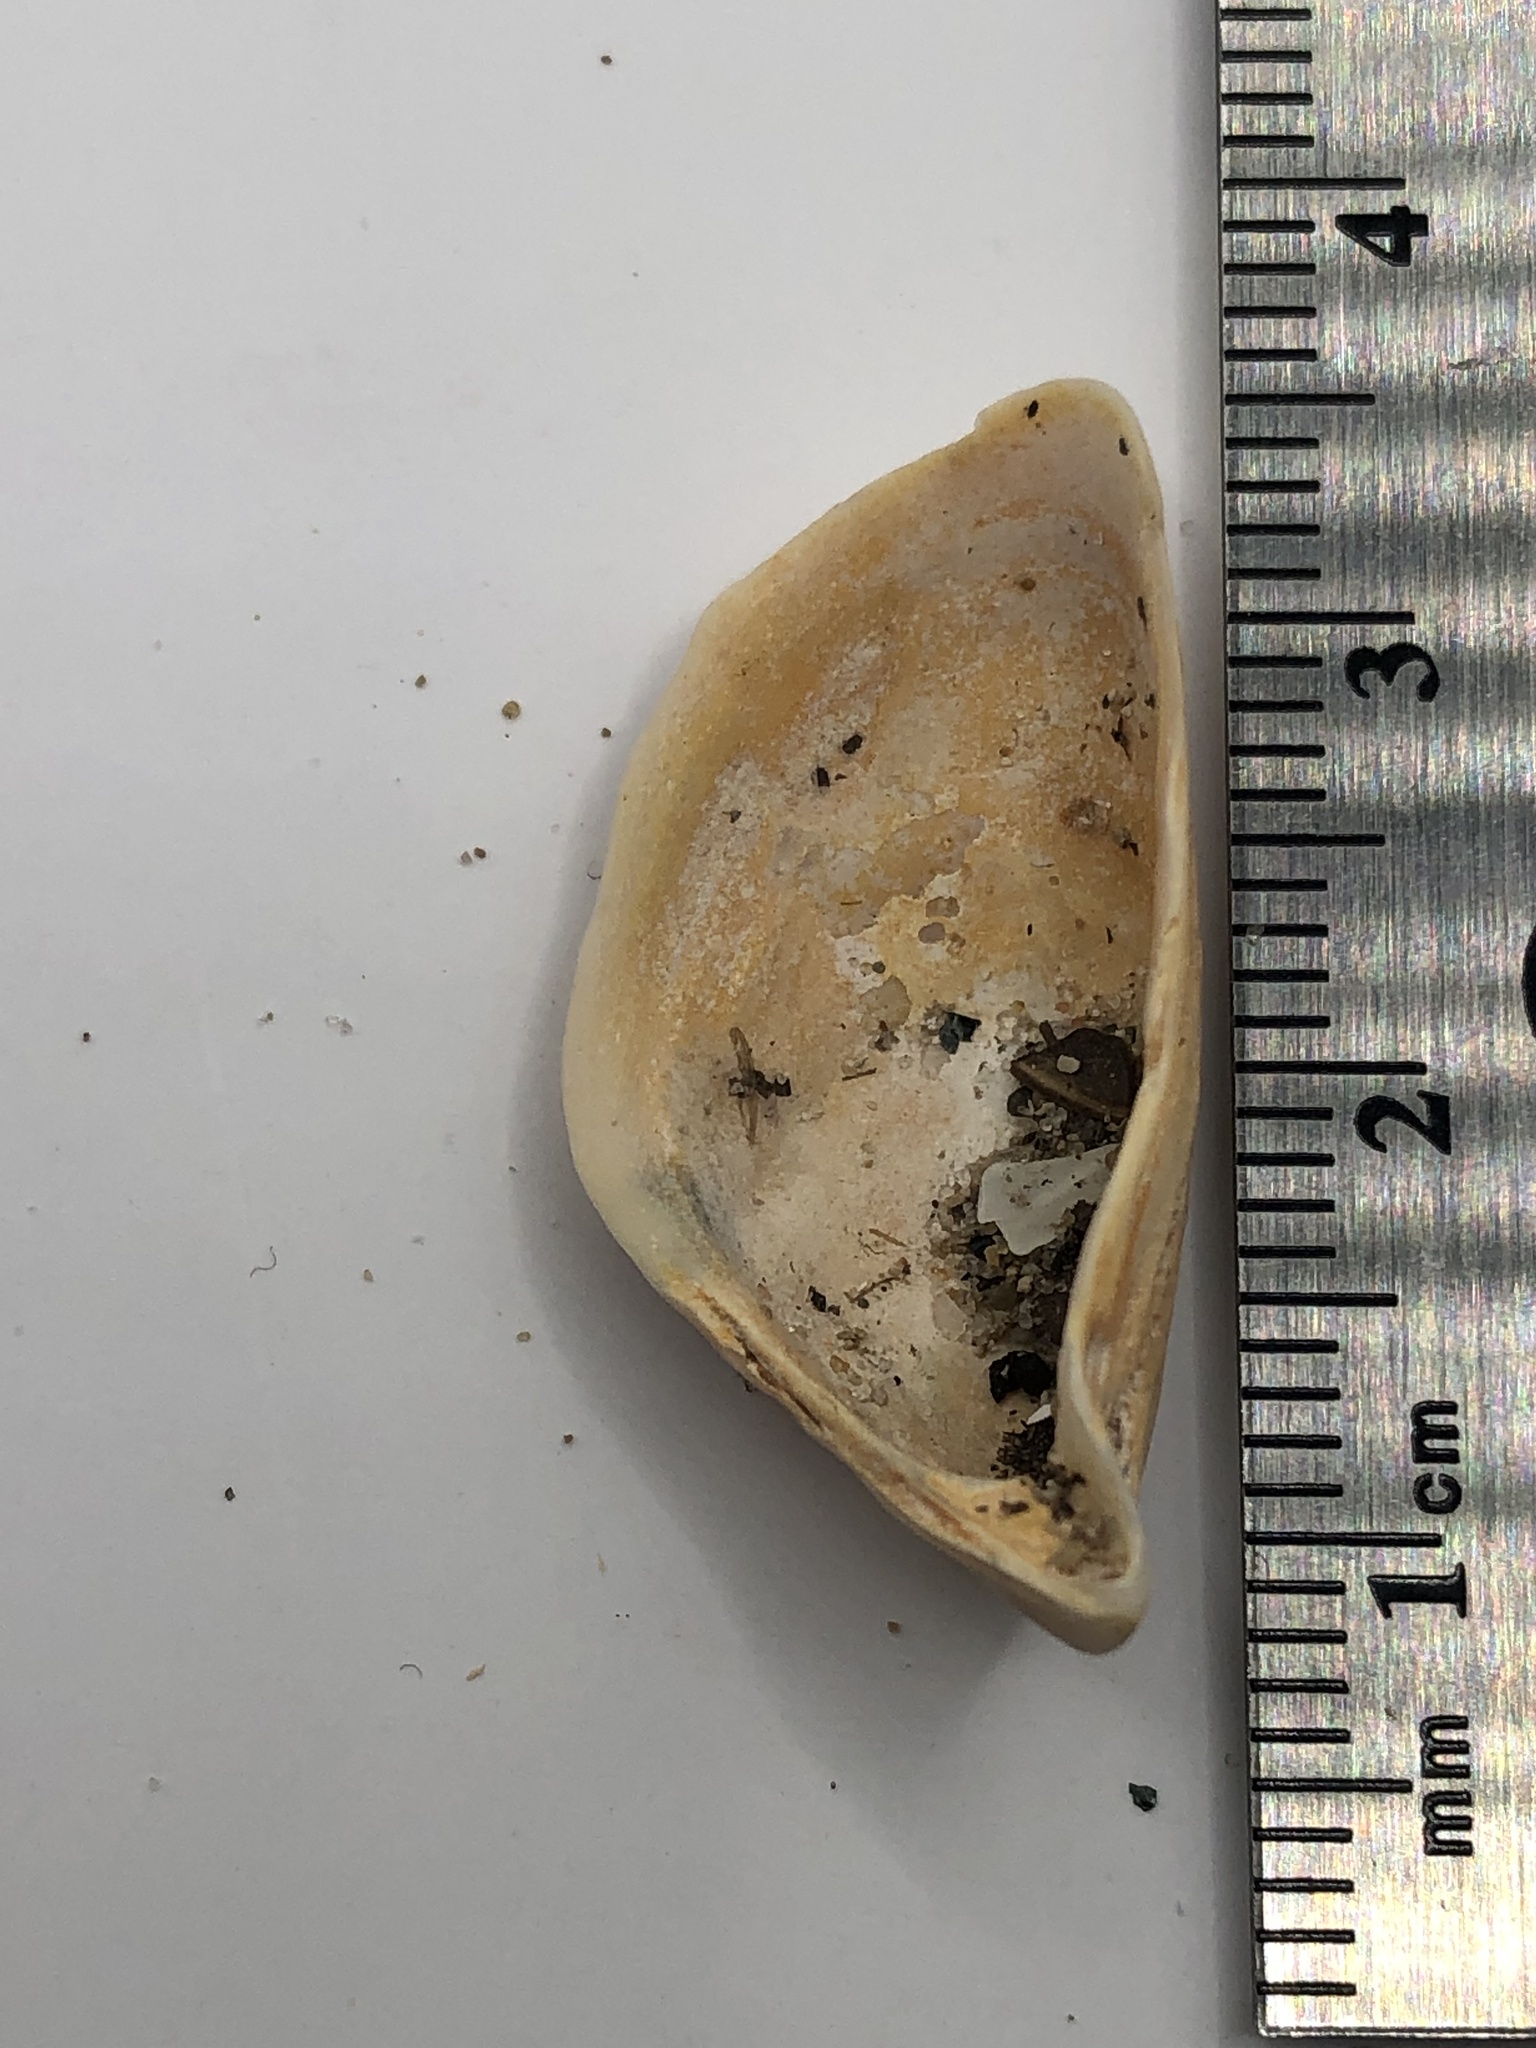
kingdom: Animalia
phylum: Mollusca
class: Bivalvia
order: Myida
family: Dreissenidae
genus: Dreissena
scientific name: Dreissena polymorpha
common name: Zebra mussel
